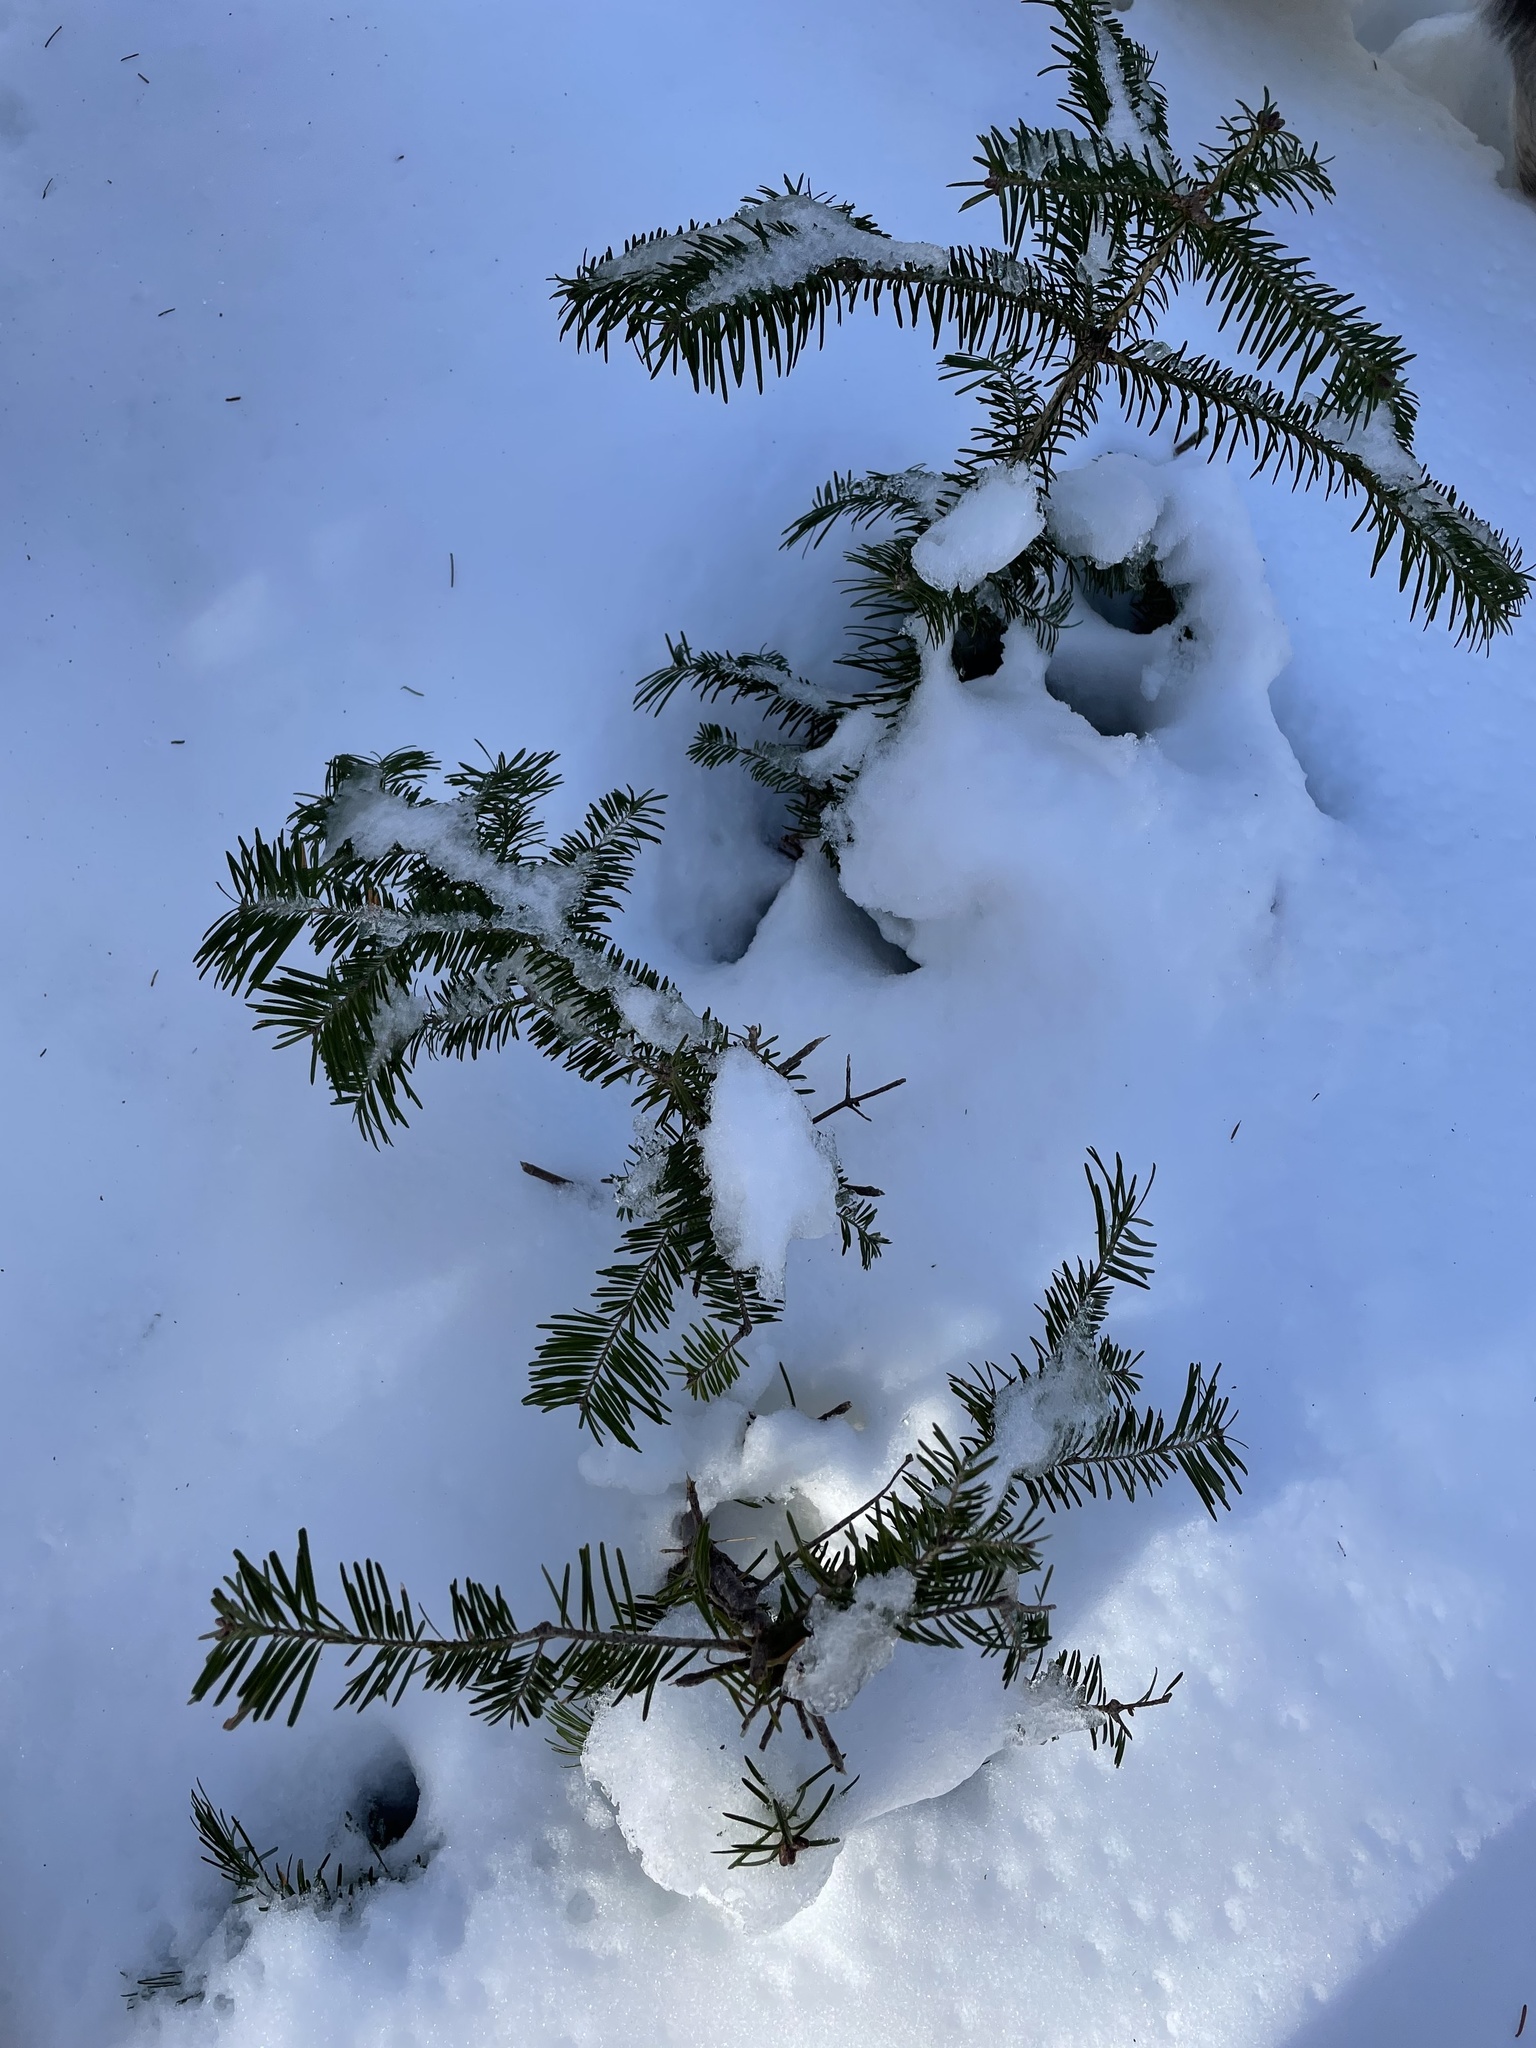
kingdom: Plantae
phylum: Tracheophyta
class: Pinopsida
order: Pinales
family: Pinaceae
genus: Abies
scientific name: Abies balsamea
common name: Balsam fir
